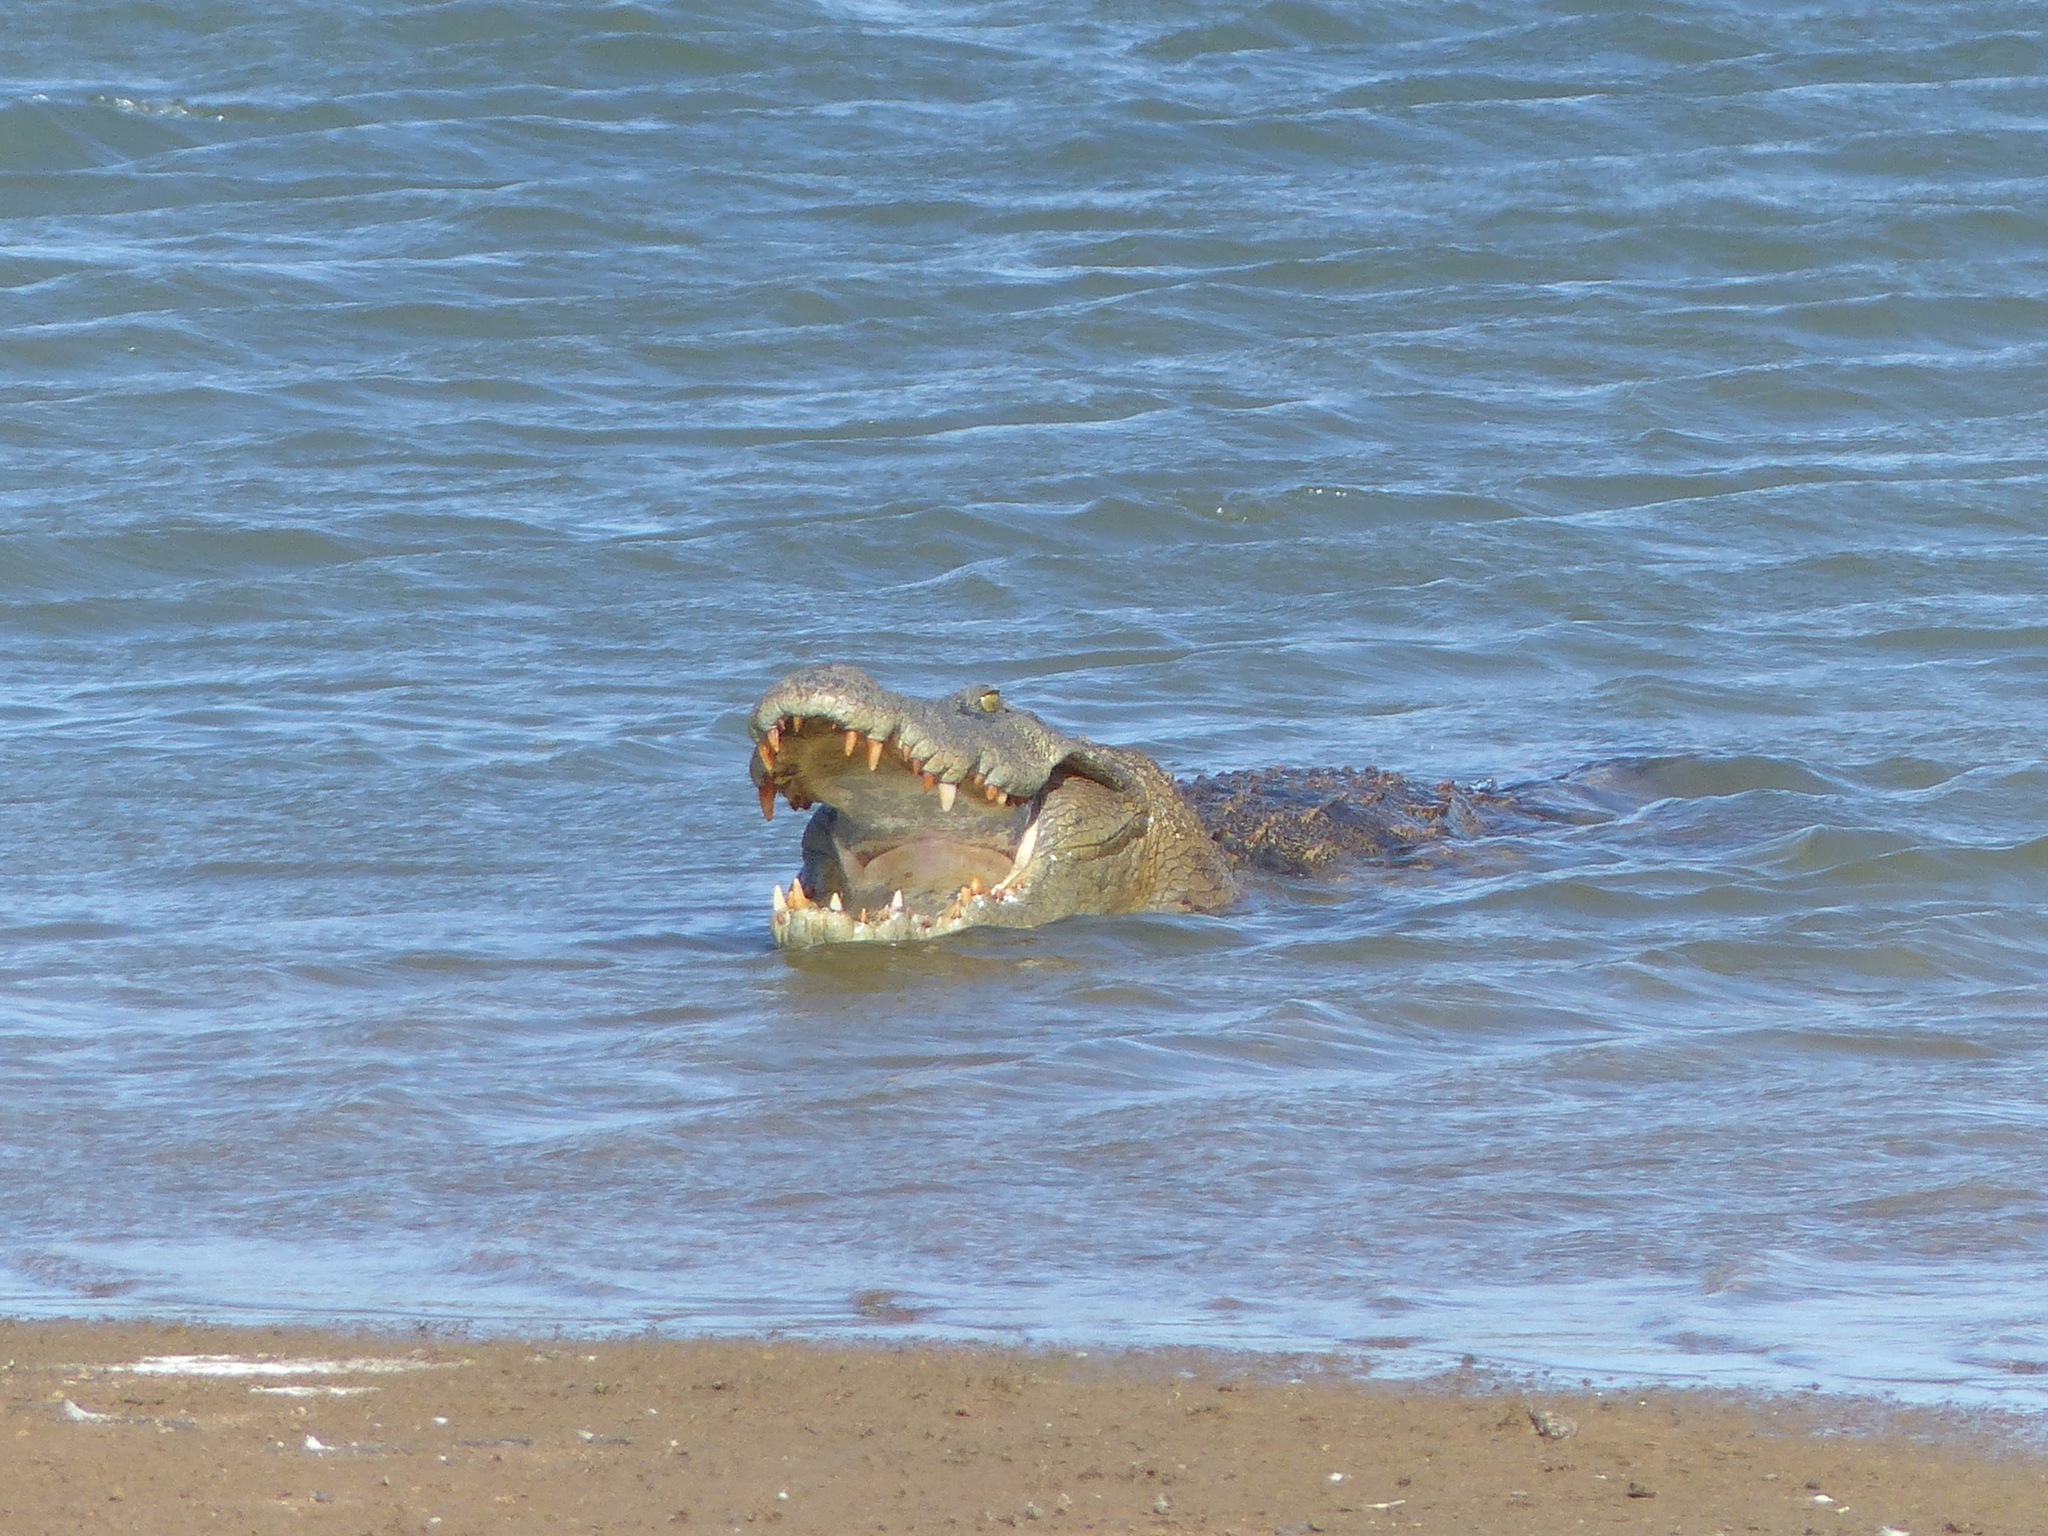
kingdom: Animalia
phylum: Chordata
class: Crocodylia
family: Crocodylidae
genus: Crocodylus
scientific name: Crocodylus palustris
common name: Mugger crocodile
